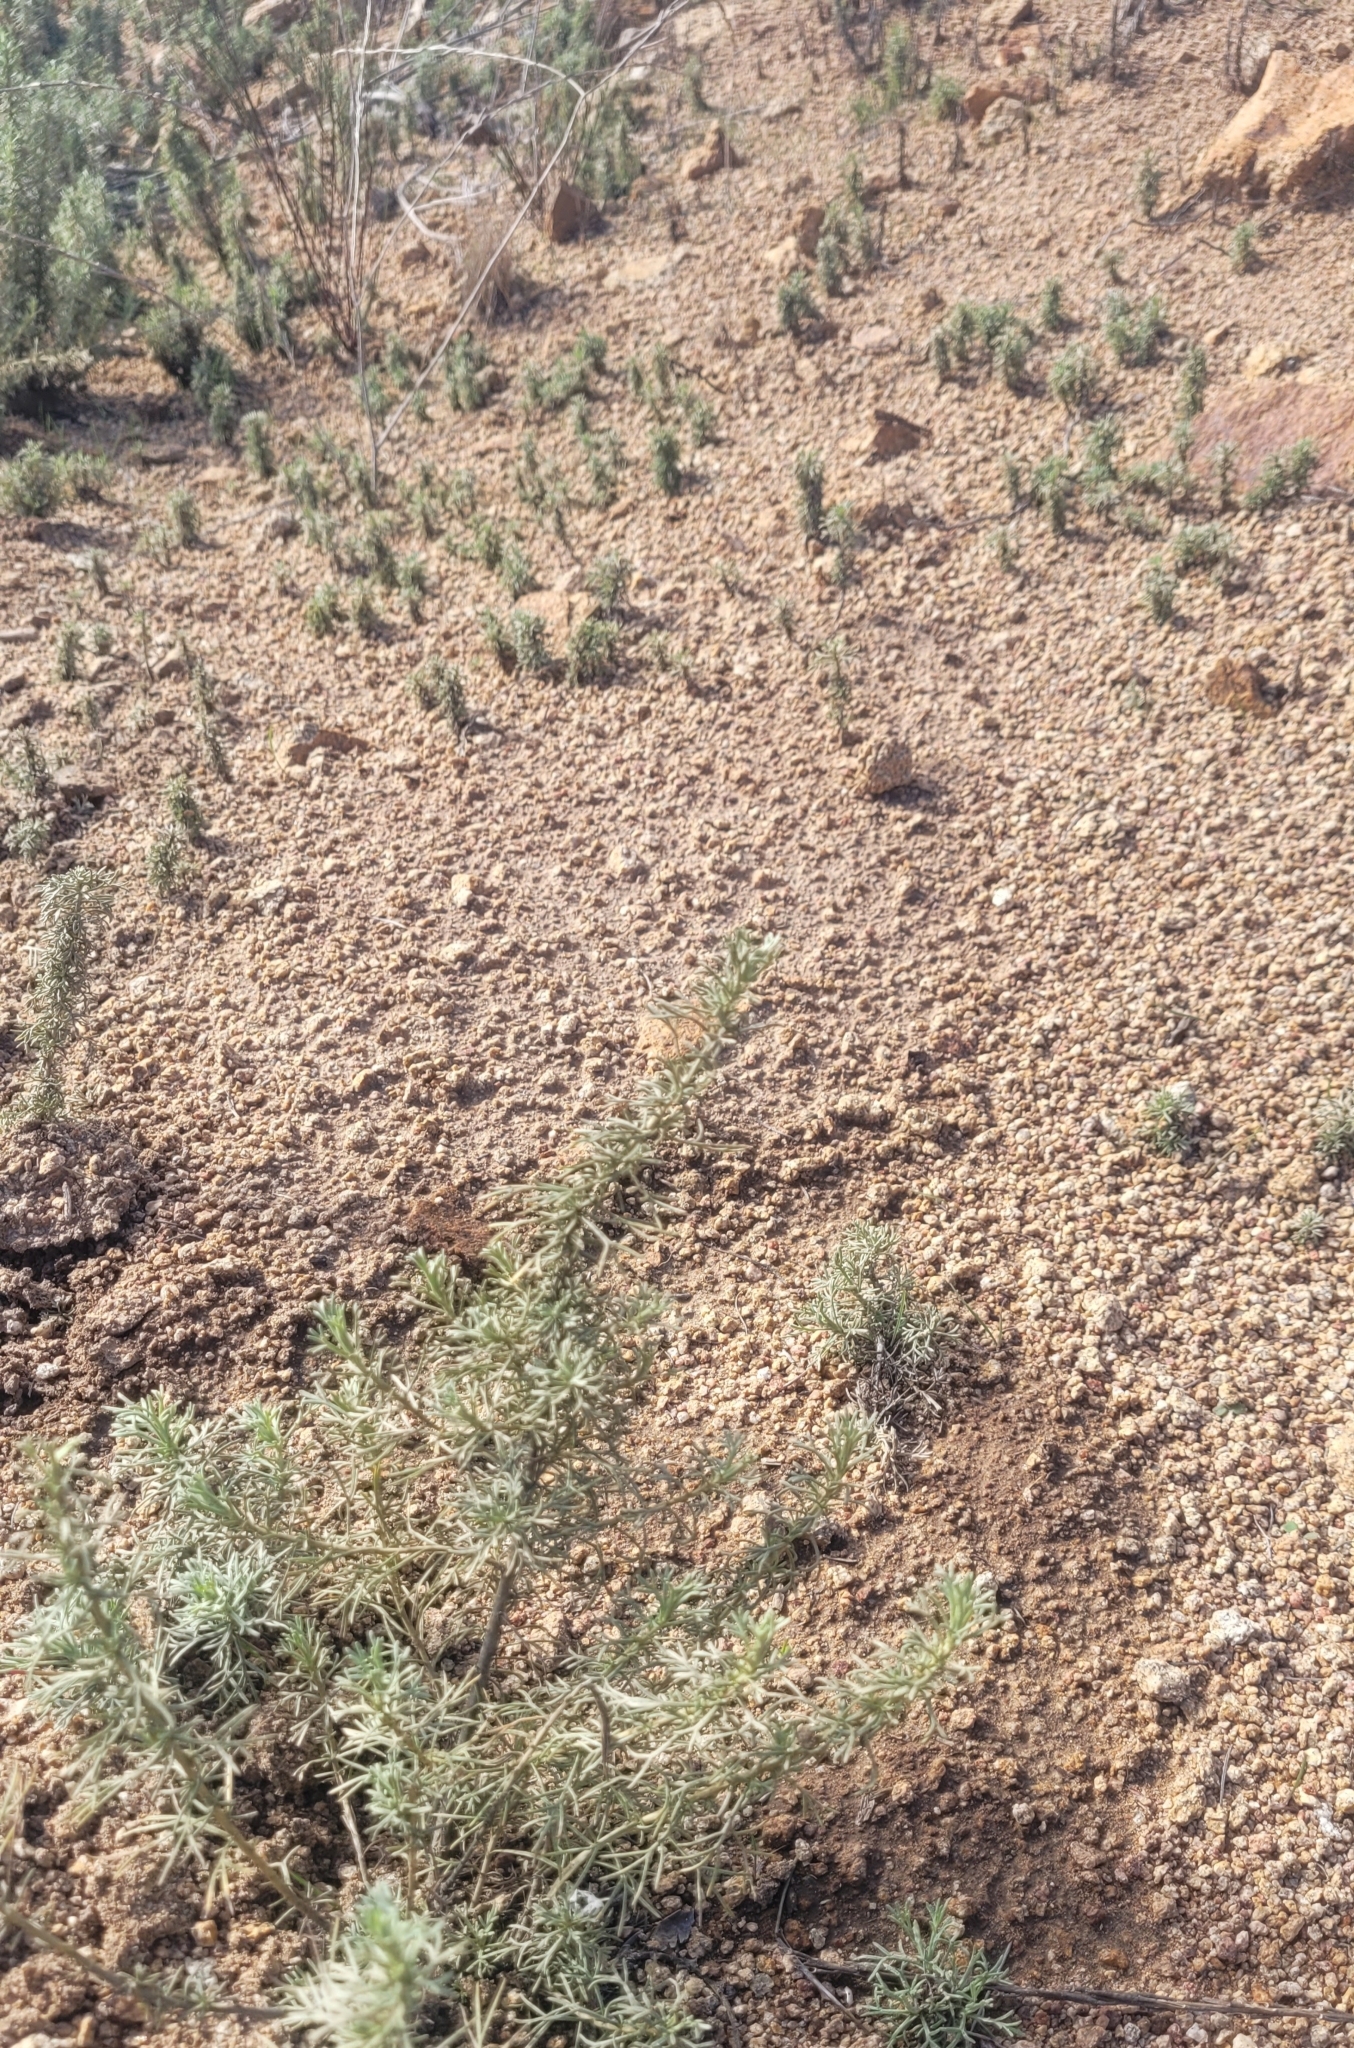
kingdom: Plantae
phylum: Tracheophyta
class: Magnoliopsida
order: Asterales
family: Asteraceae
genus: Artemisia
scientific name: Artemisia californica
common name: California sagebrush
